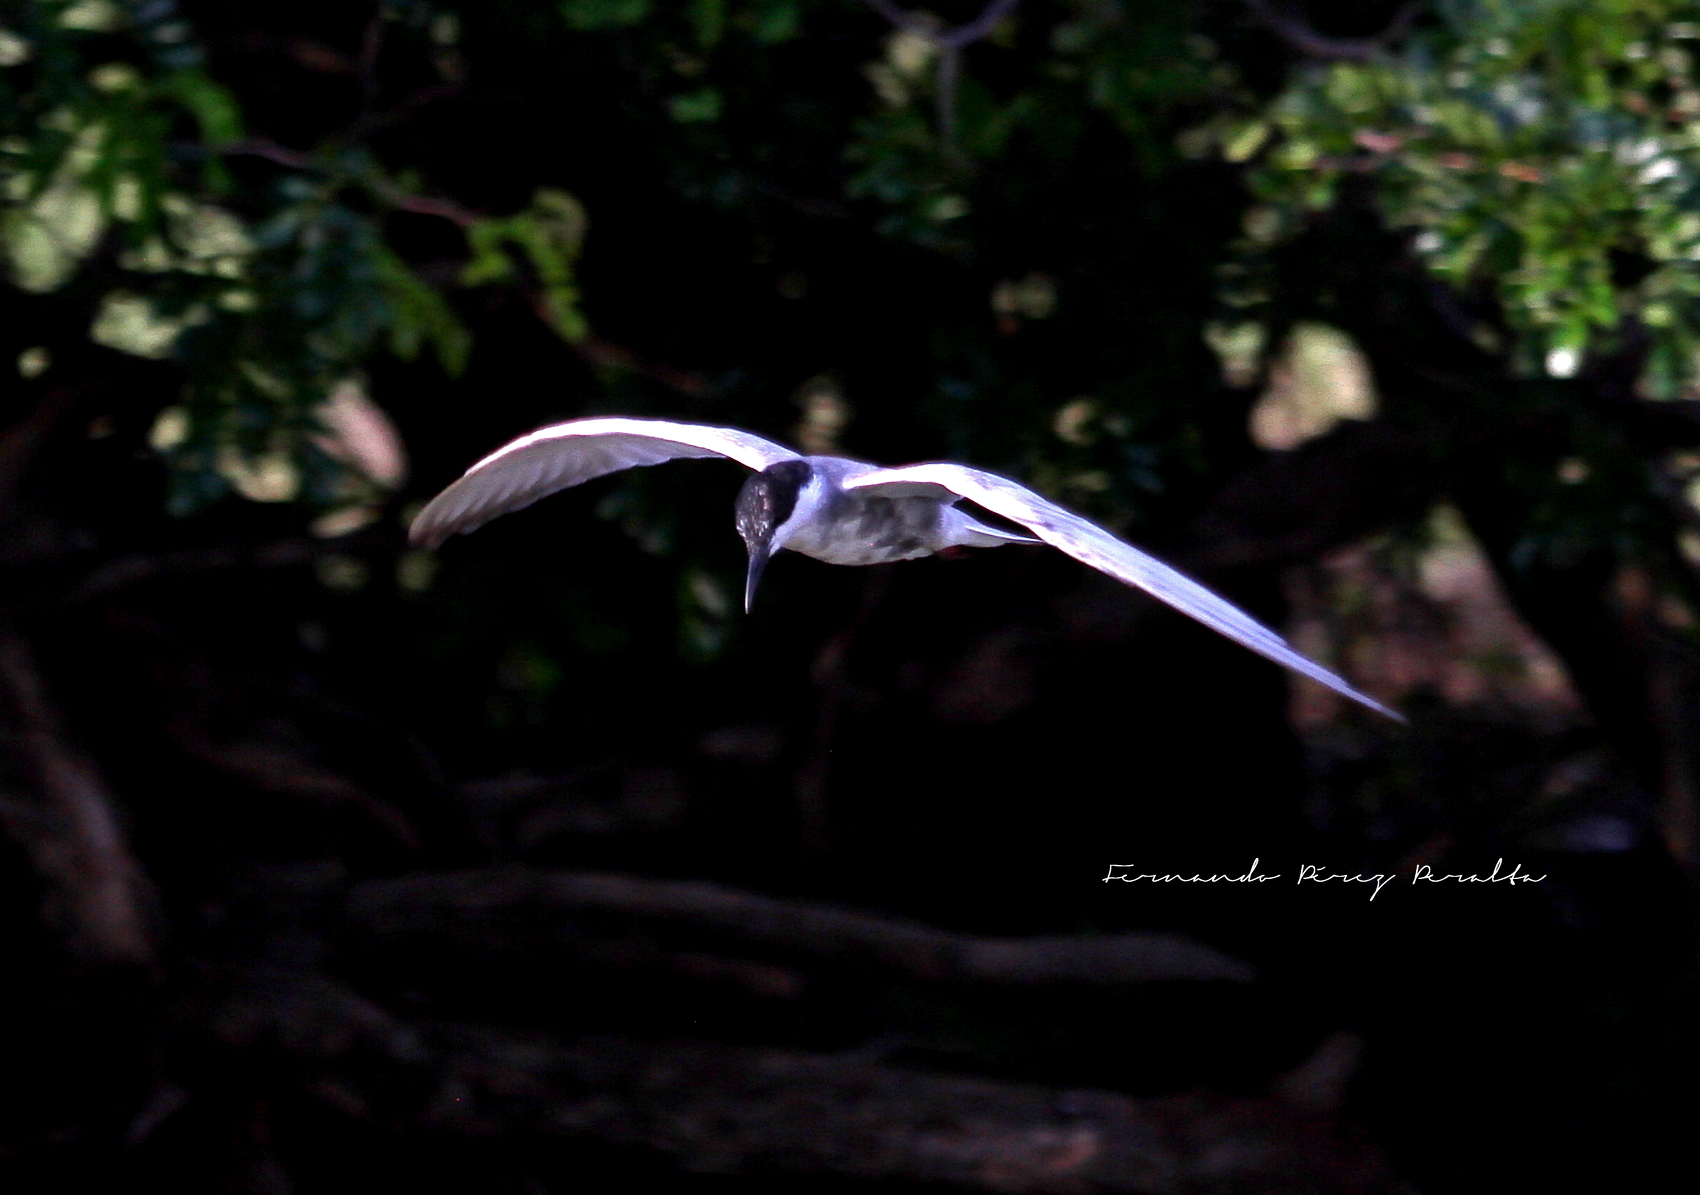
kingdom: Animalia
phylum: Chordata
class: Aves
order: Charadriiformes
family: Laridae
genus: Chlidonias
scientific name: Chlidonias hybrida
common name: Whiskered tern
